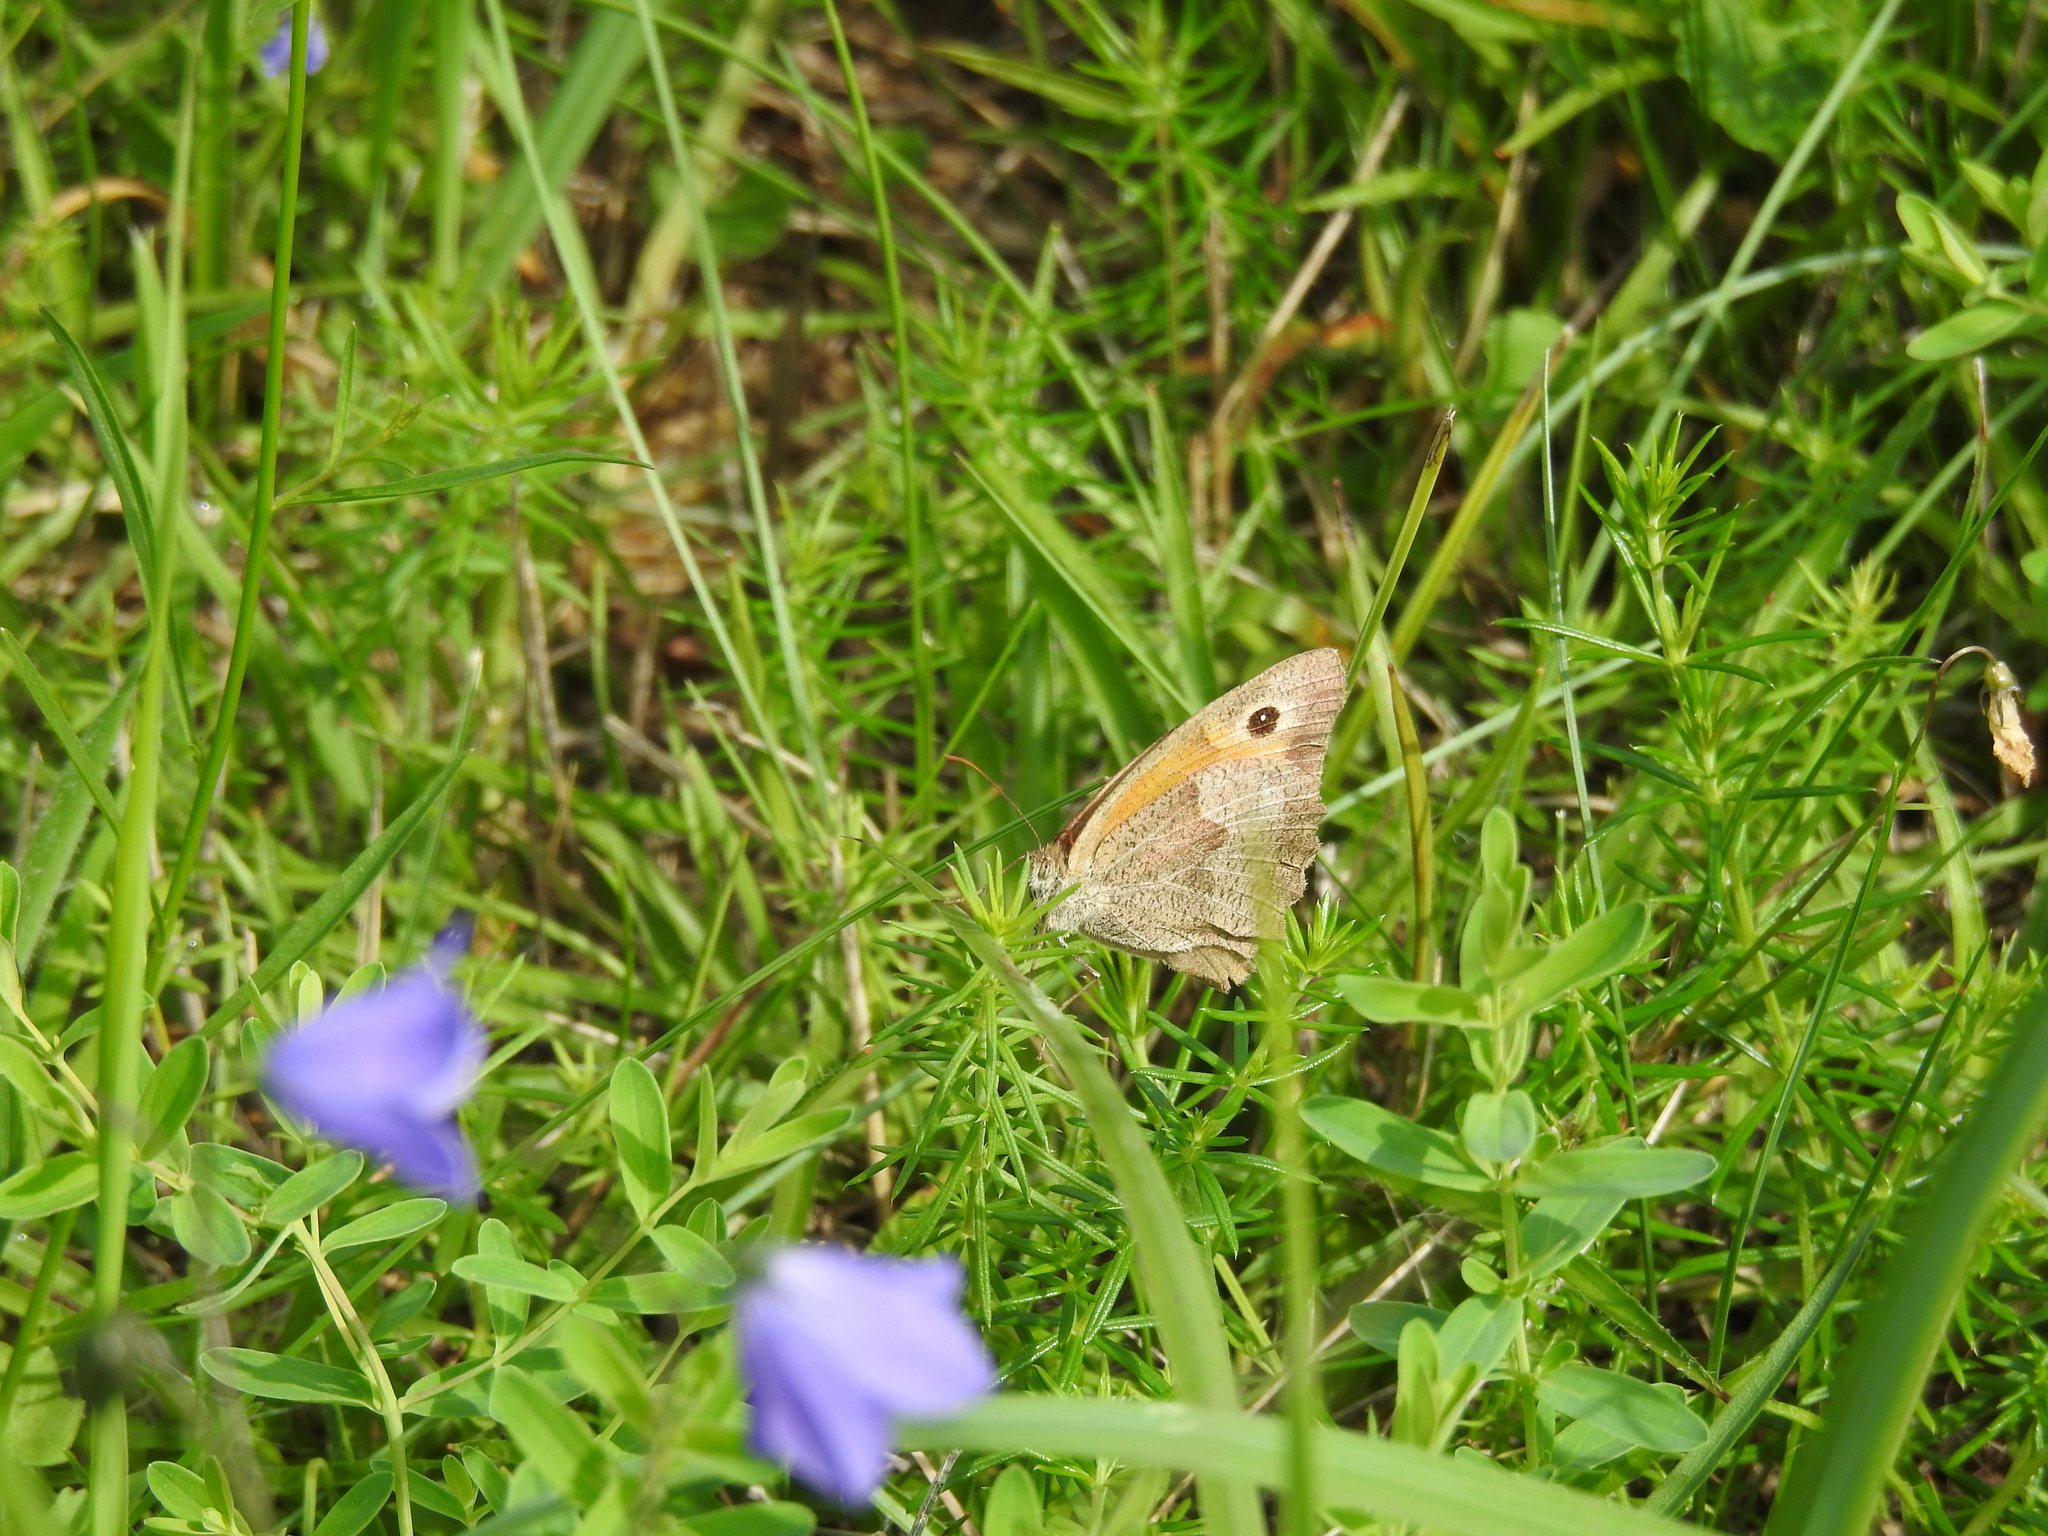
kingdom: Animalia
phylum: Arthropoda
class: Insecta
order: Lepidoptera
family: Nymphalidae
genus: Maniola
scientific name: Maniola jurtina
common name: Meadow brown
